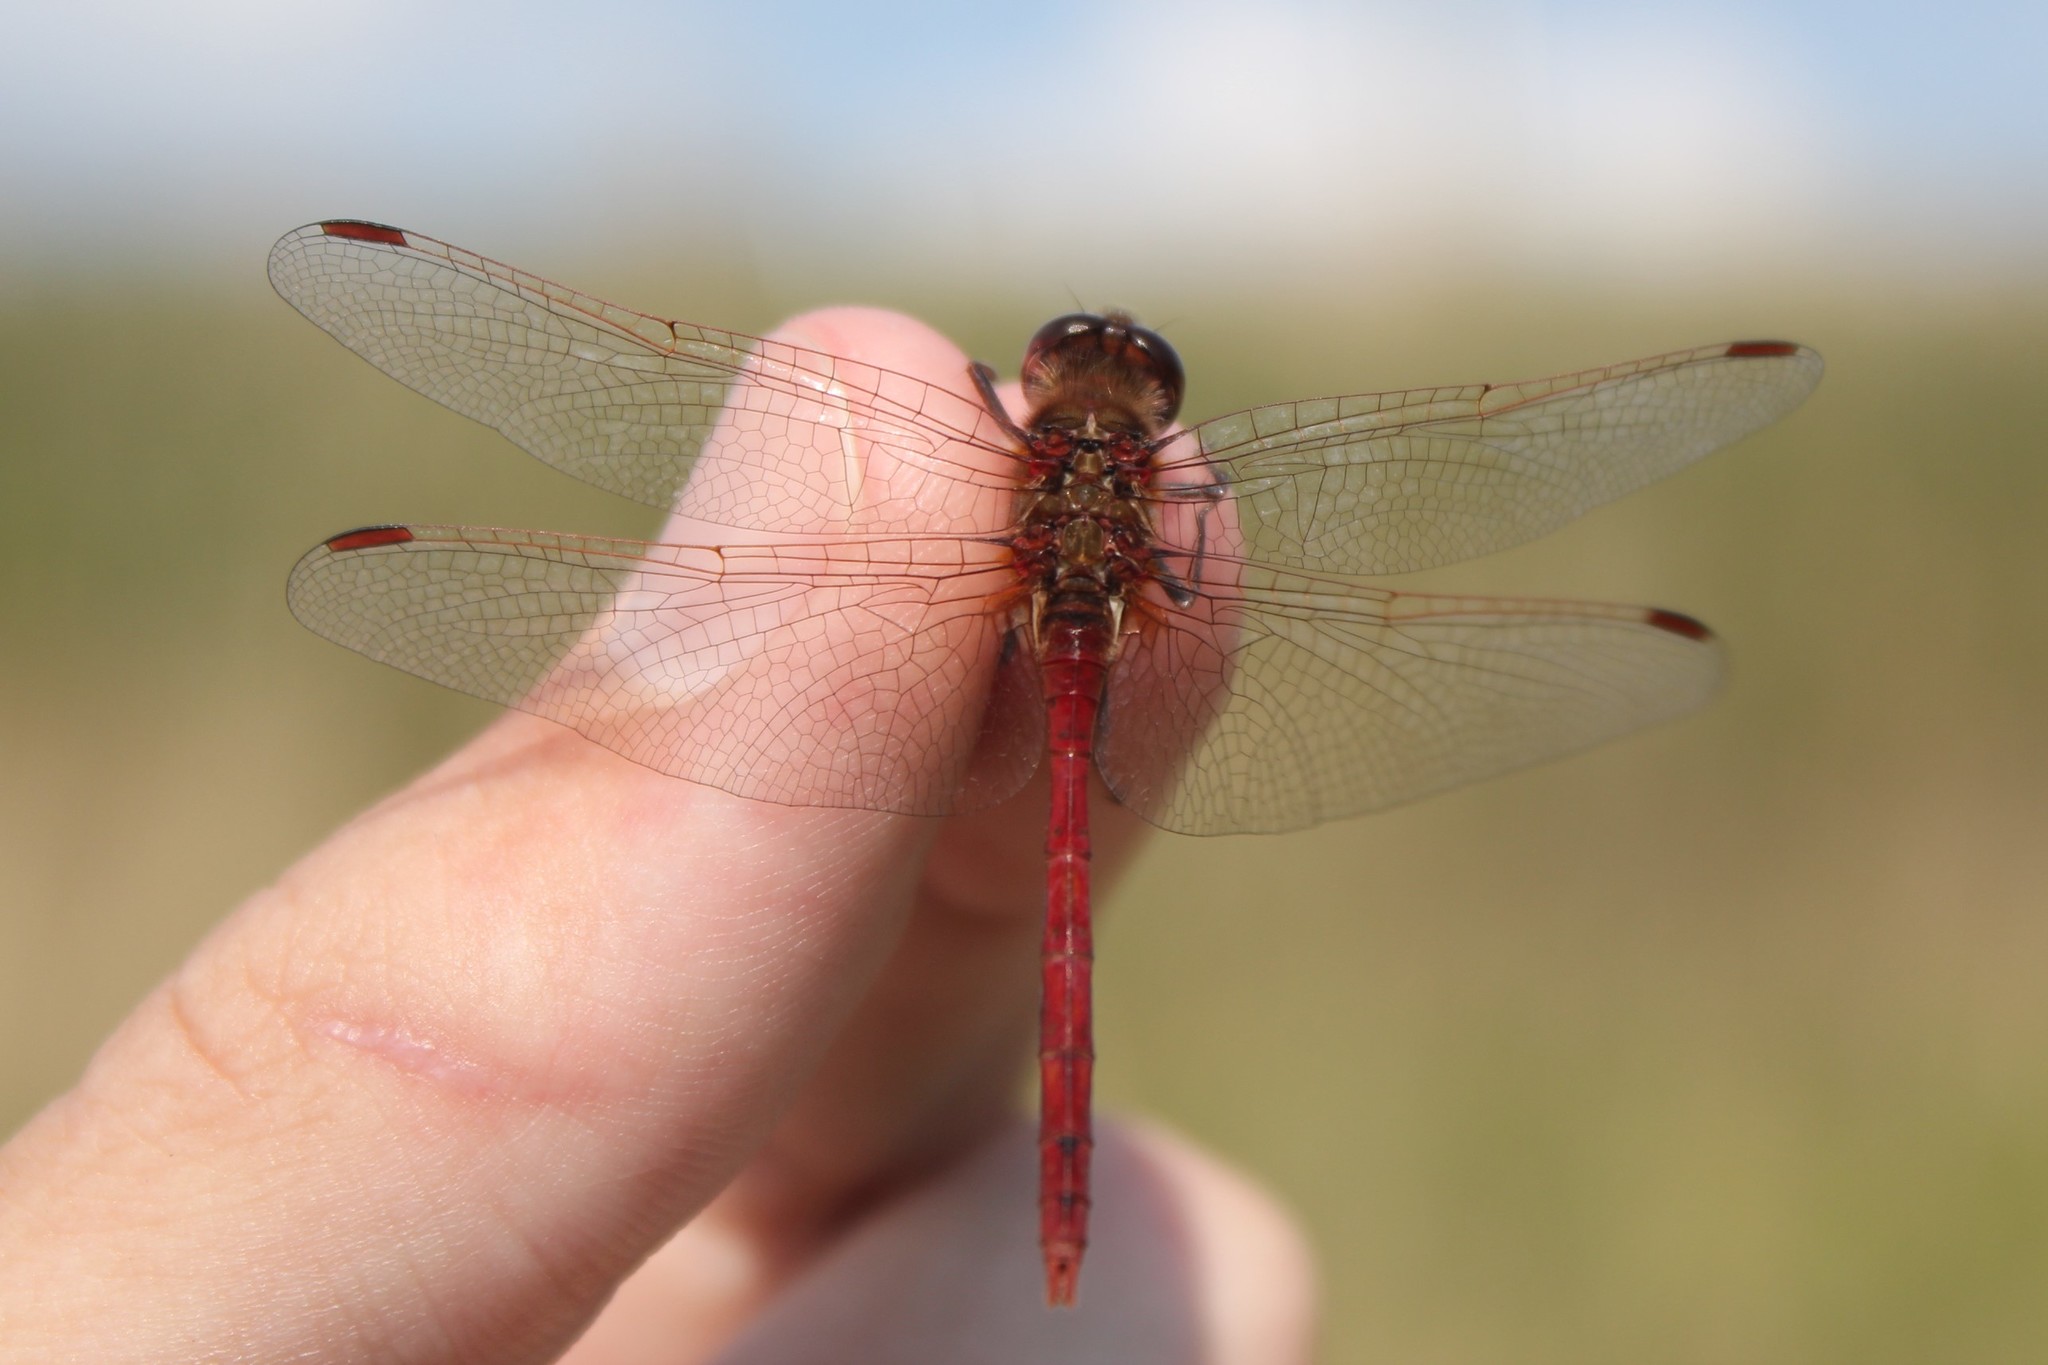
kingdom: Animalia
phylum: Arthropoda
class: Insecta
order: Odonata
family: Libellulidae
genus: Sympetrum
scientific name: Sympetrum costiferum
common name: Saffron-winged meadowhawk
